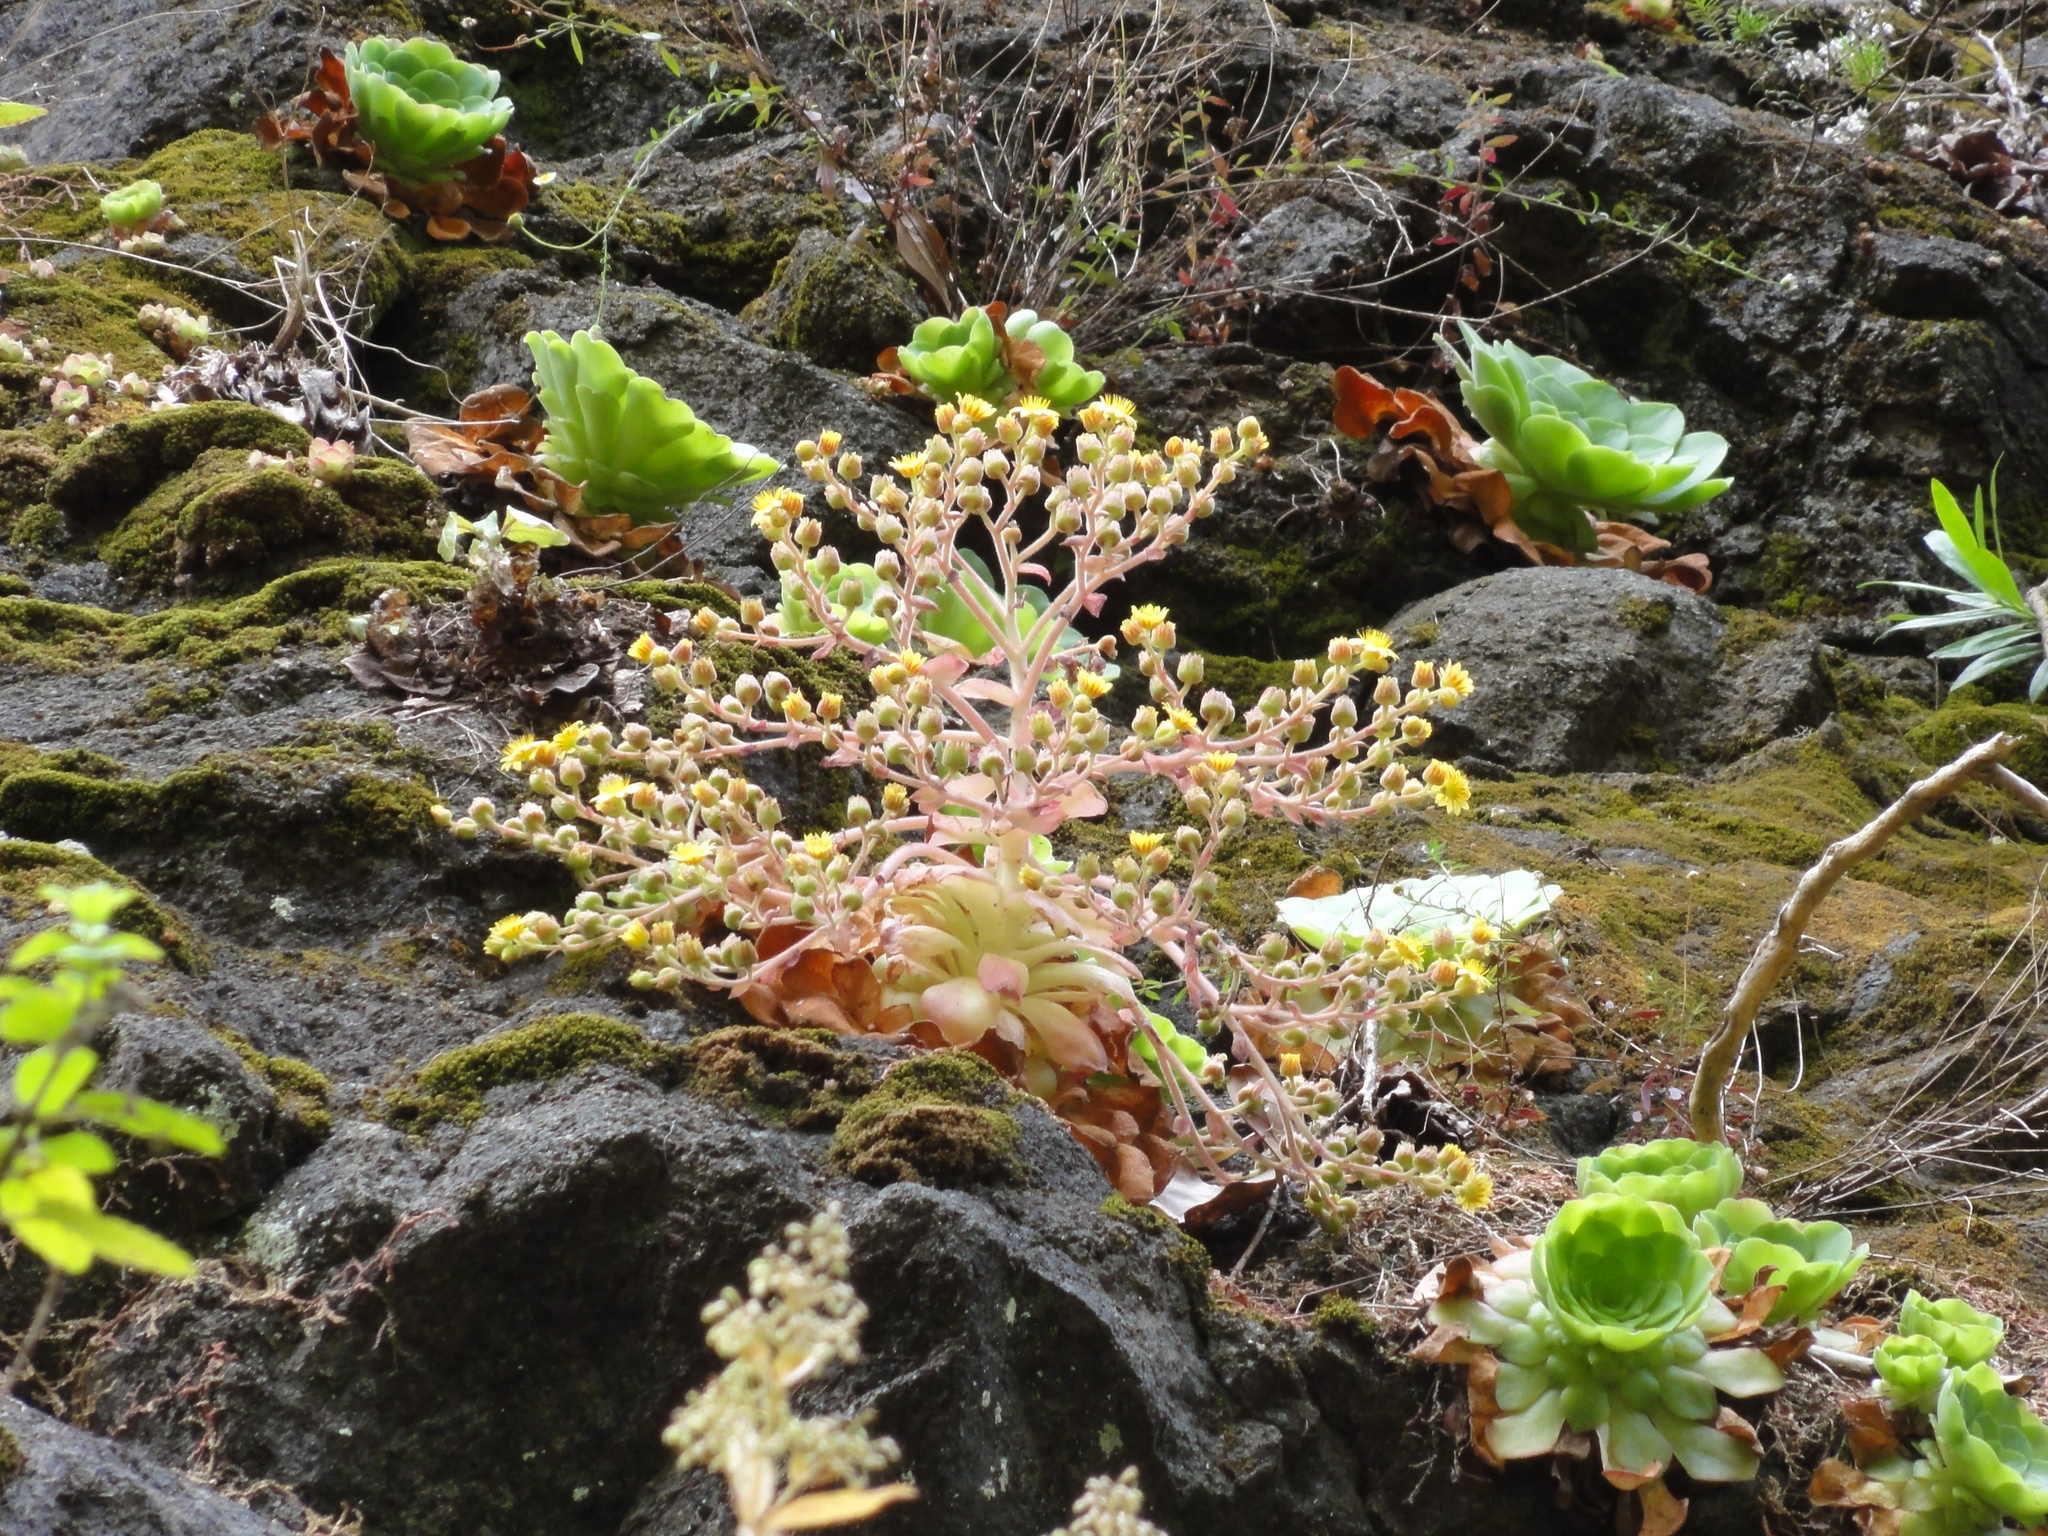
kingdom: Plantae
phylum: Tracheophyta
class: Magnoliopsida
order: Saxifragales
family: Crassulaceae
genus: Aeonium
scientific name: Aeonium glandulosum
